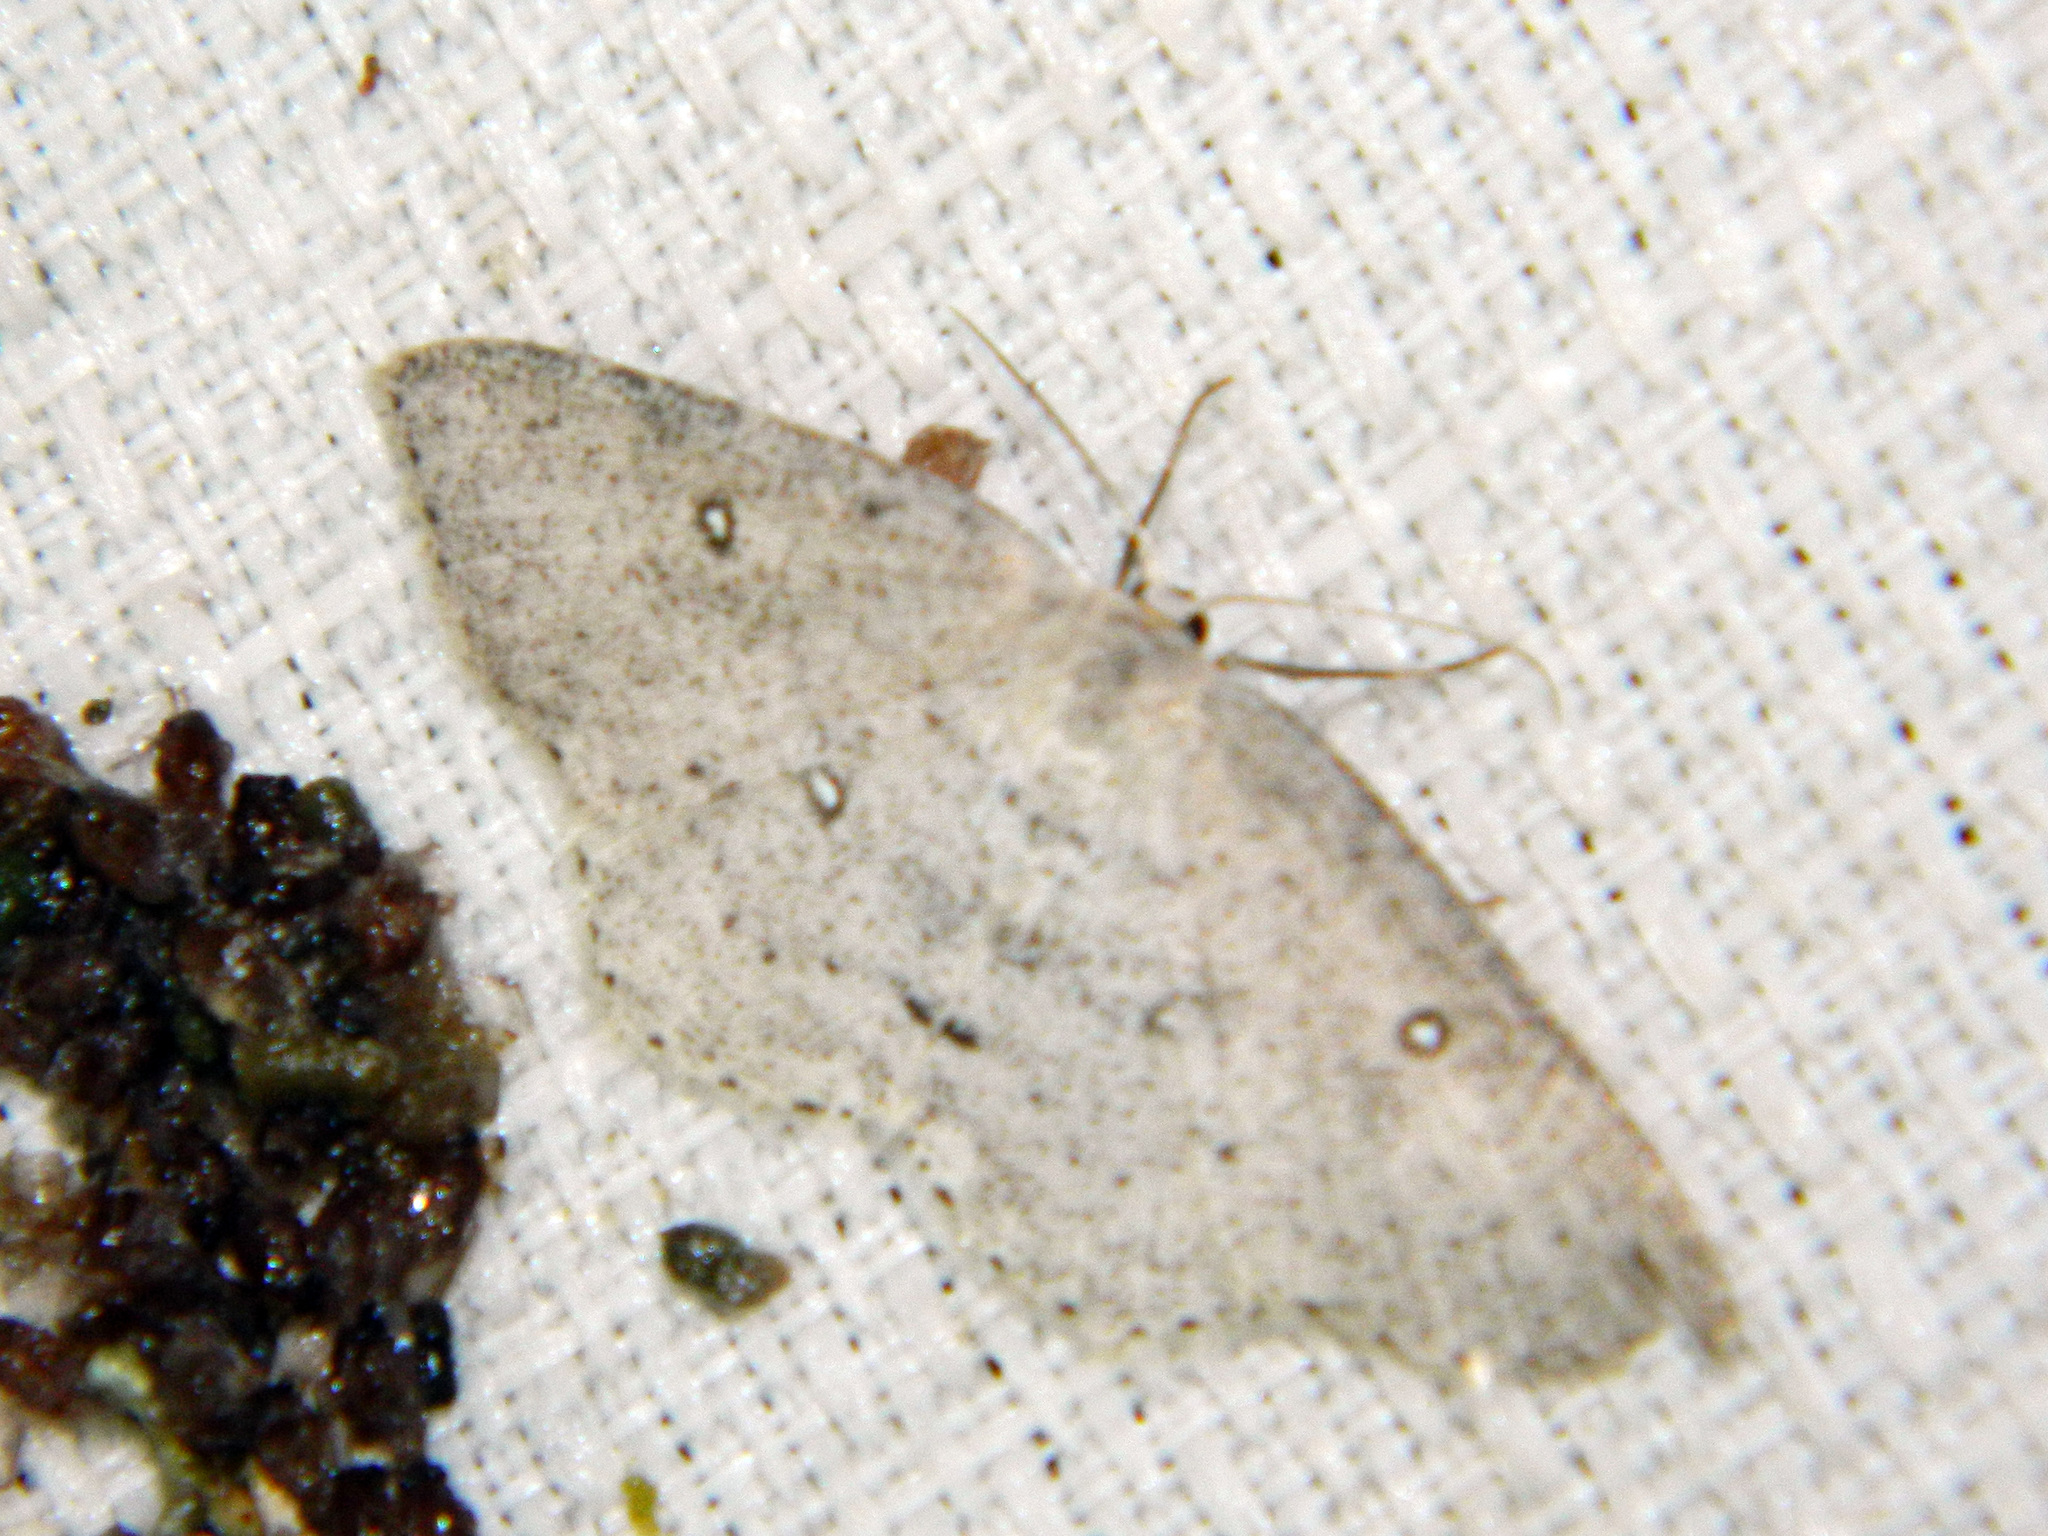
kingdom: Animalia
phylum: Arthropoda
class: Insecta
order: Lepidoptera
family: Geometridae
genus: Cyclophora
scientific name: Cyclophora pendulinaria
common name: Sweet fern geometer
